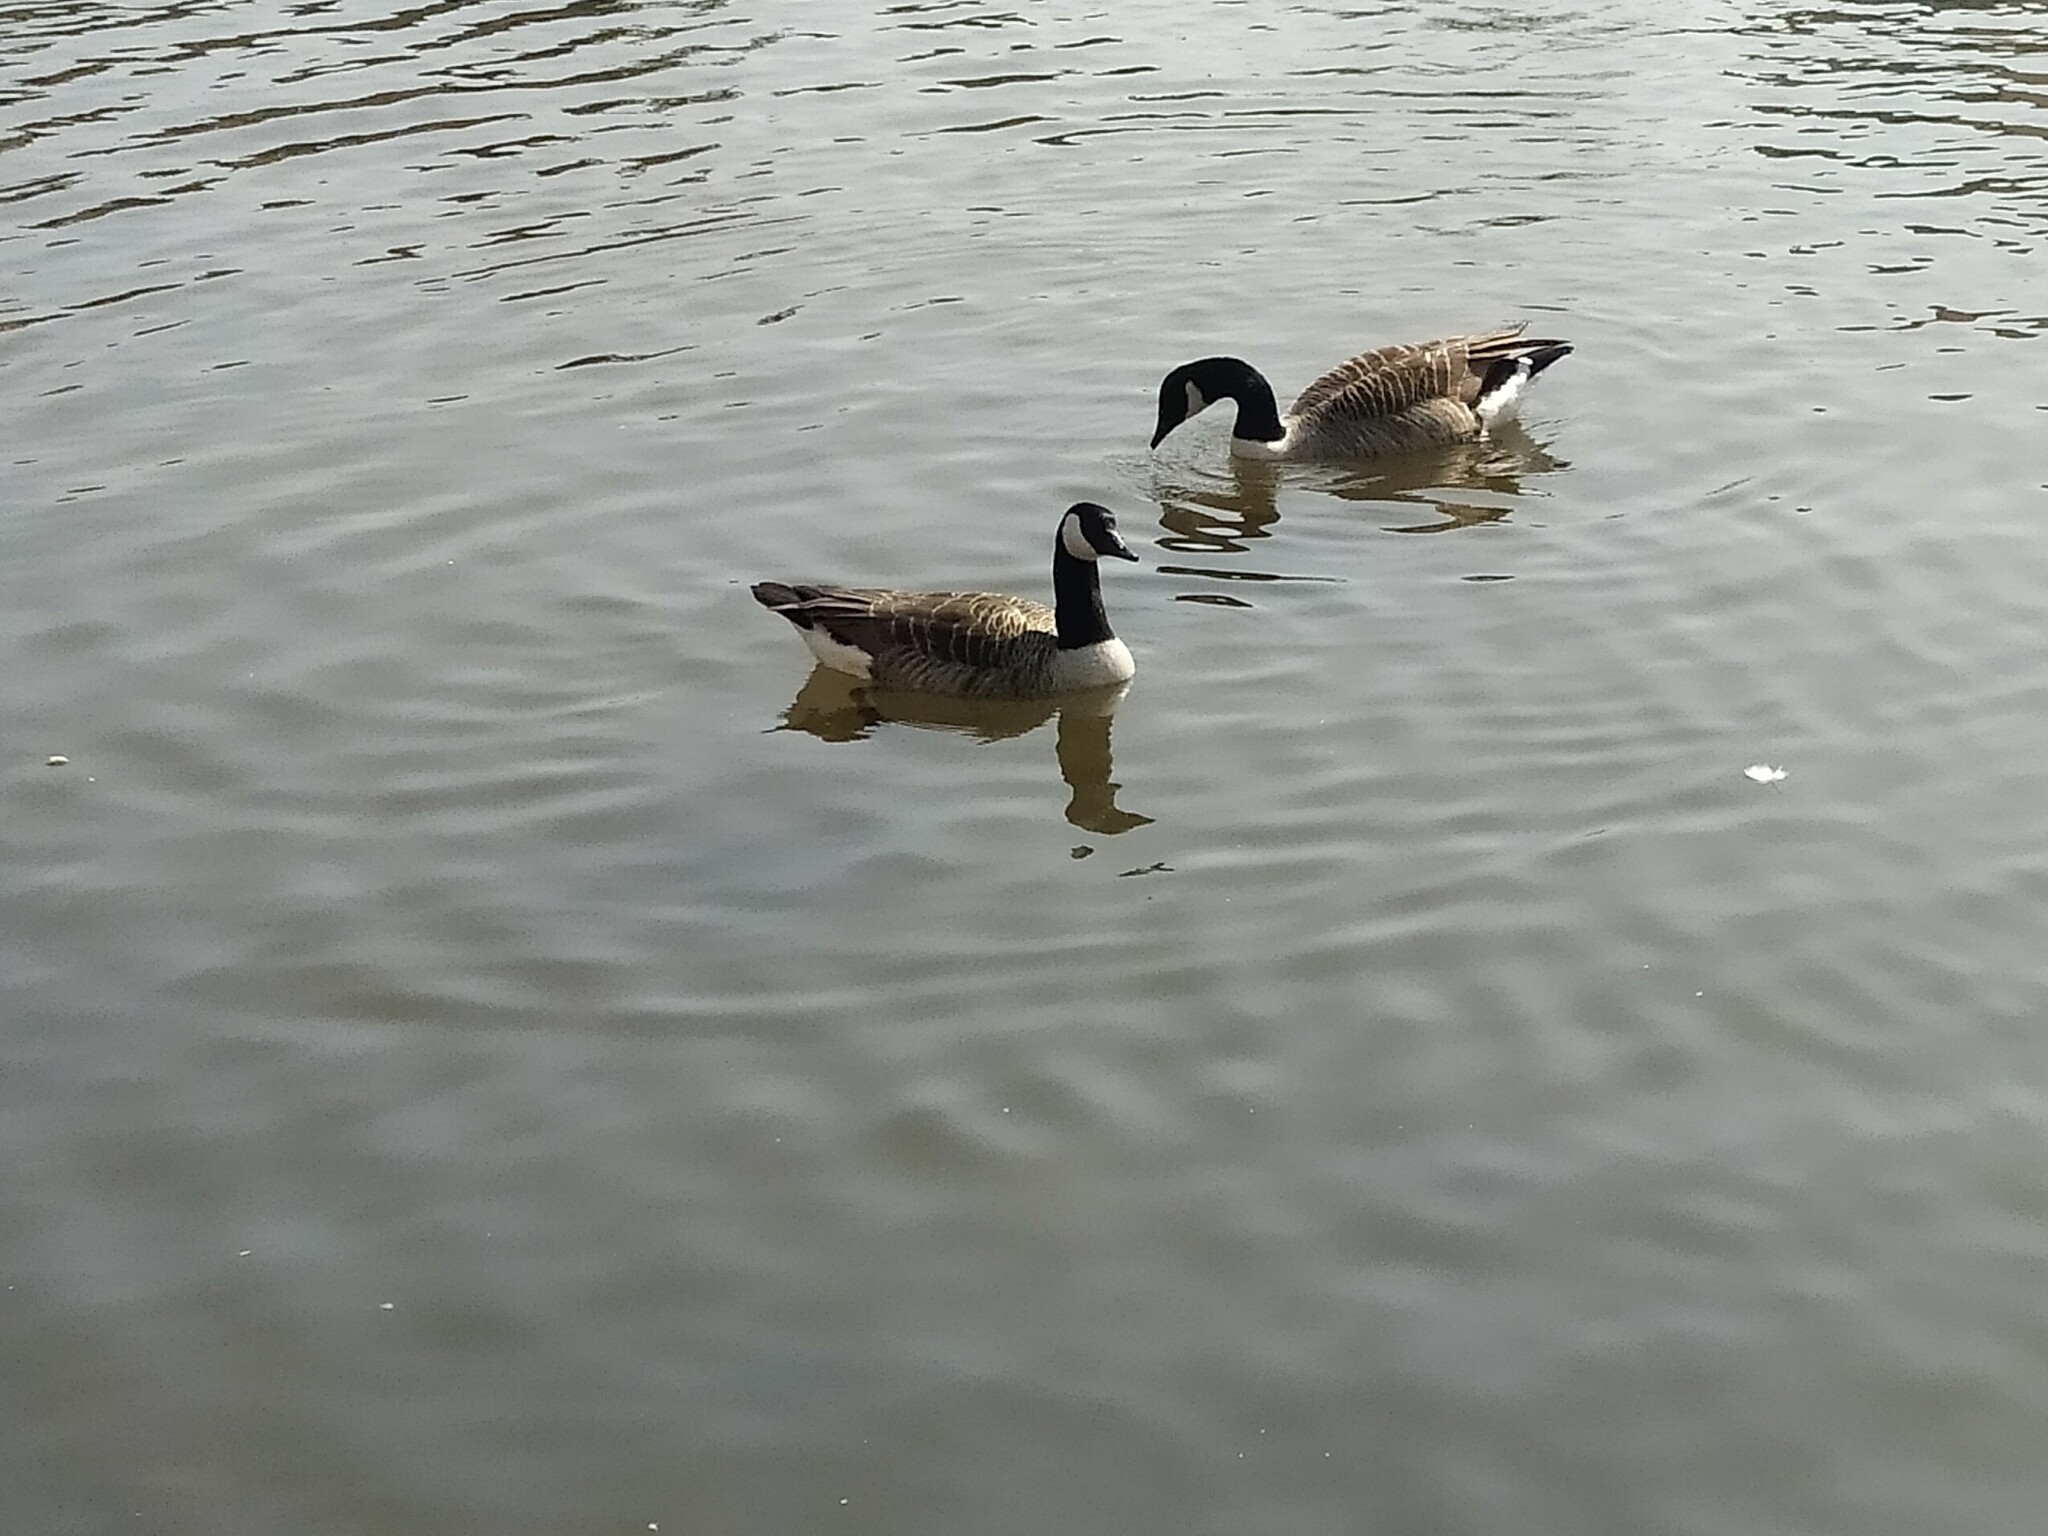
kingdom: Animalia
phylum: Chordata
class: Aves
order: Anseriformes
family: Anatidae
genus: Branta
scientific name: Branta canadensis
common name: Canada goose
